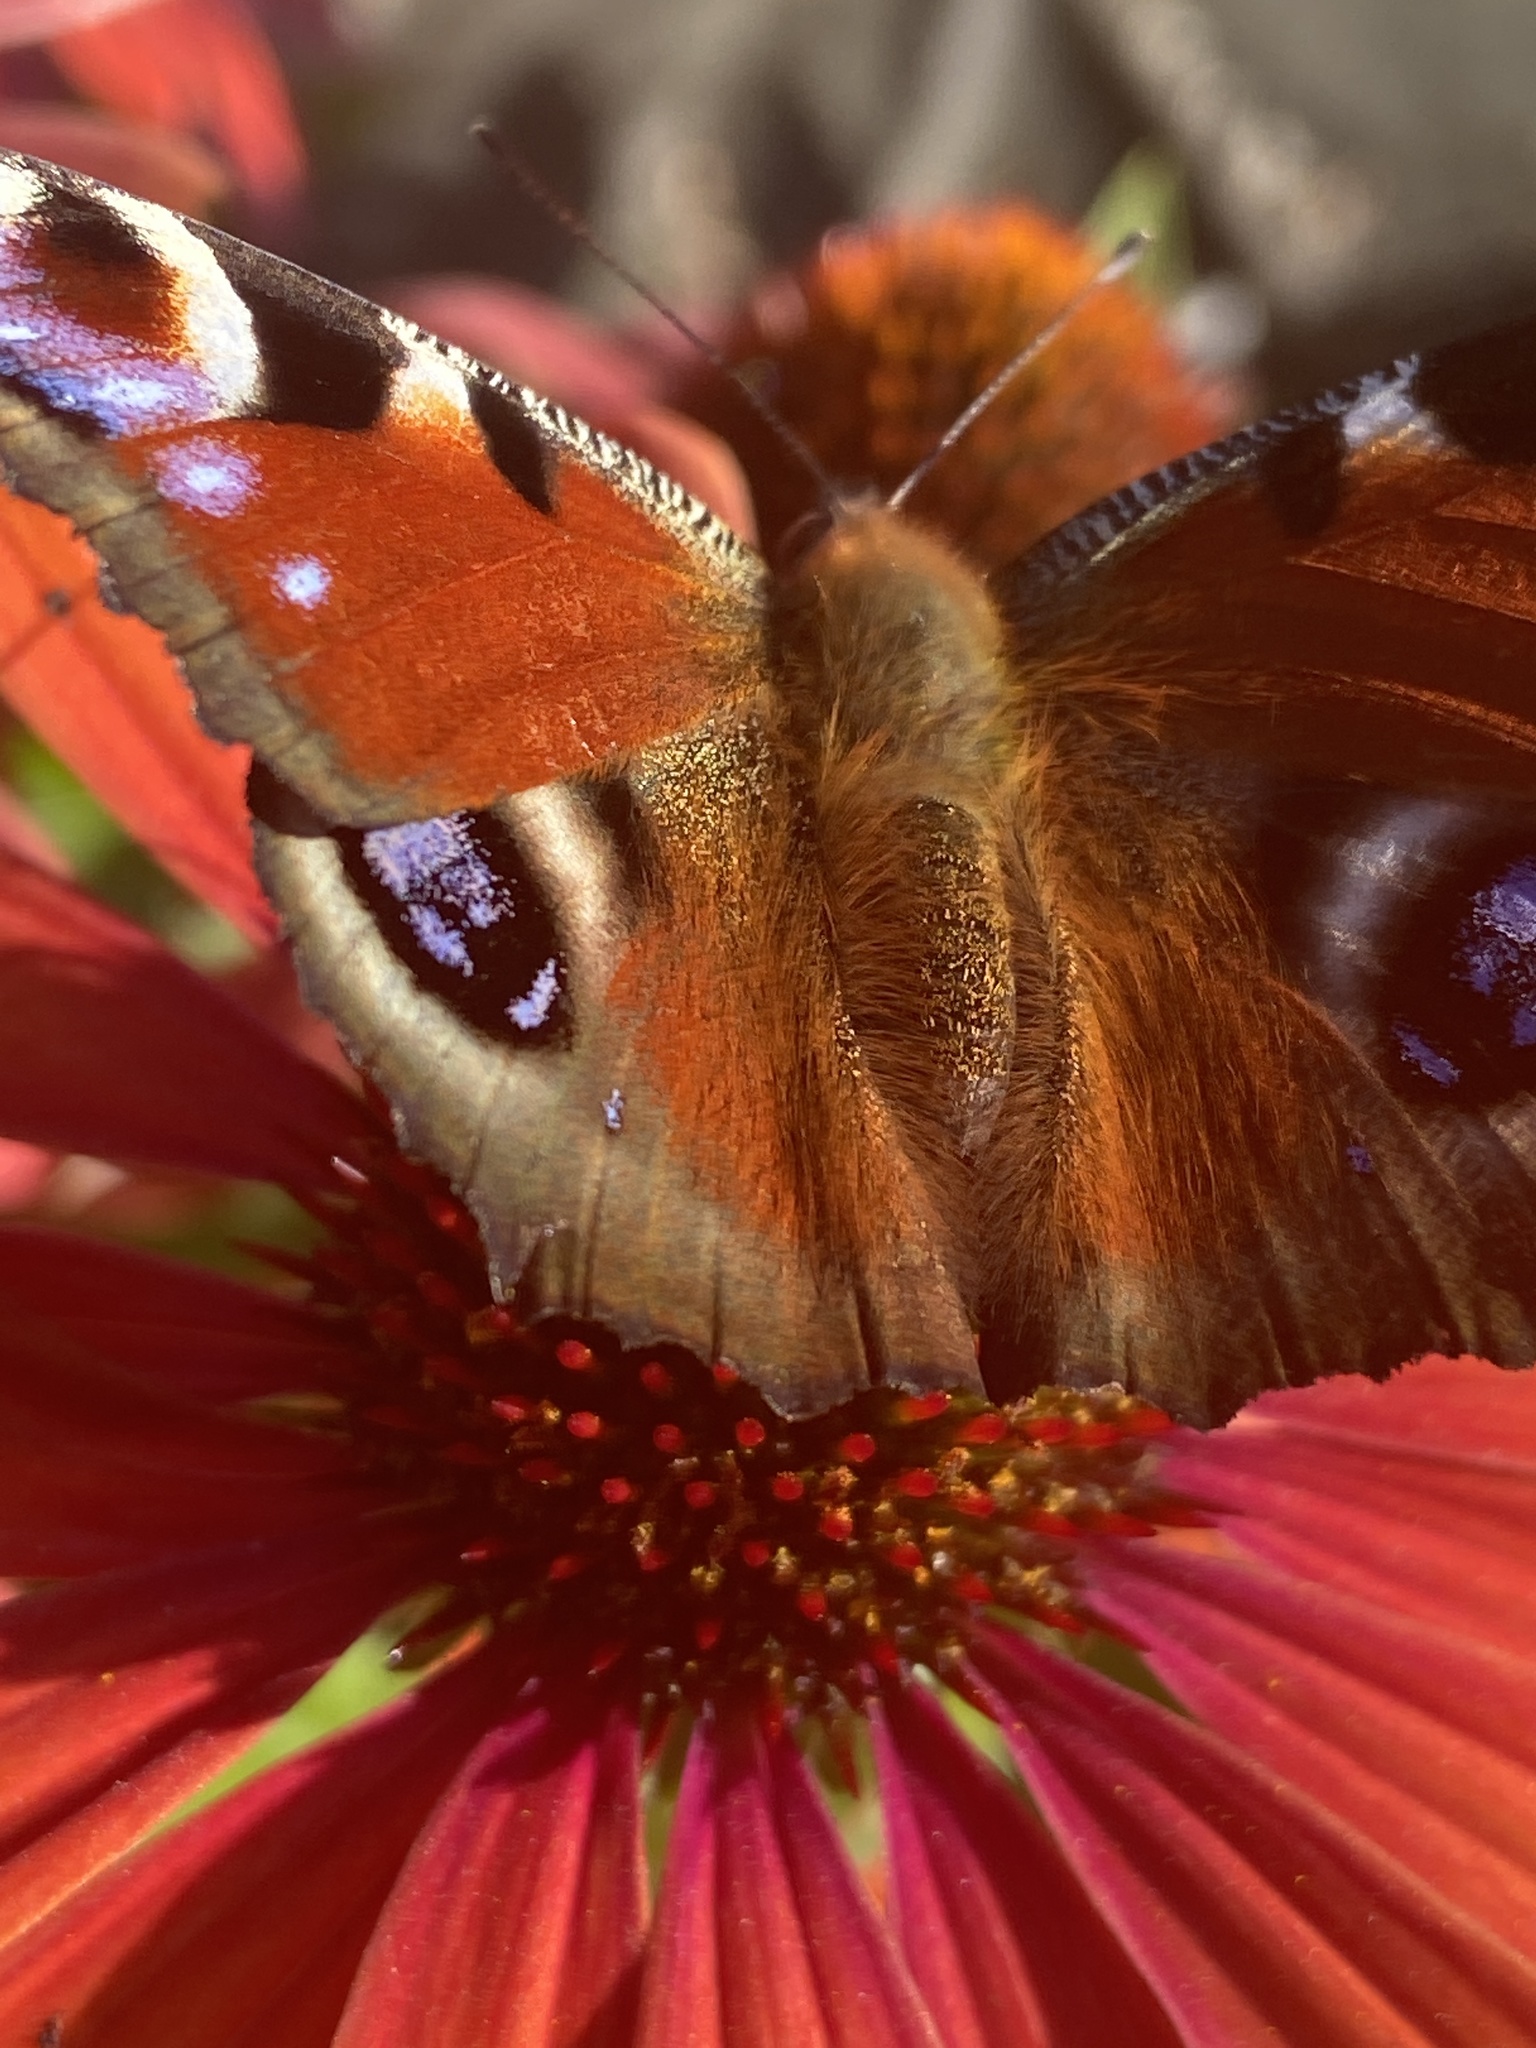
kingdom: Animalia
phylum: Arthropoda
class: Insecta
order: Lepidoptera
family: Nymphalidae
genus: Aglais
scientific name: Aglais io
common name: Peacock
